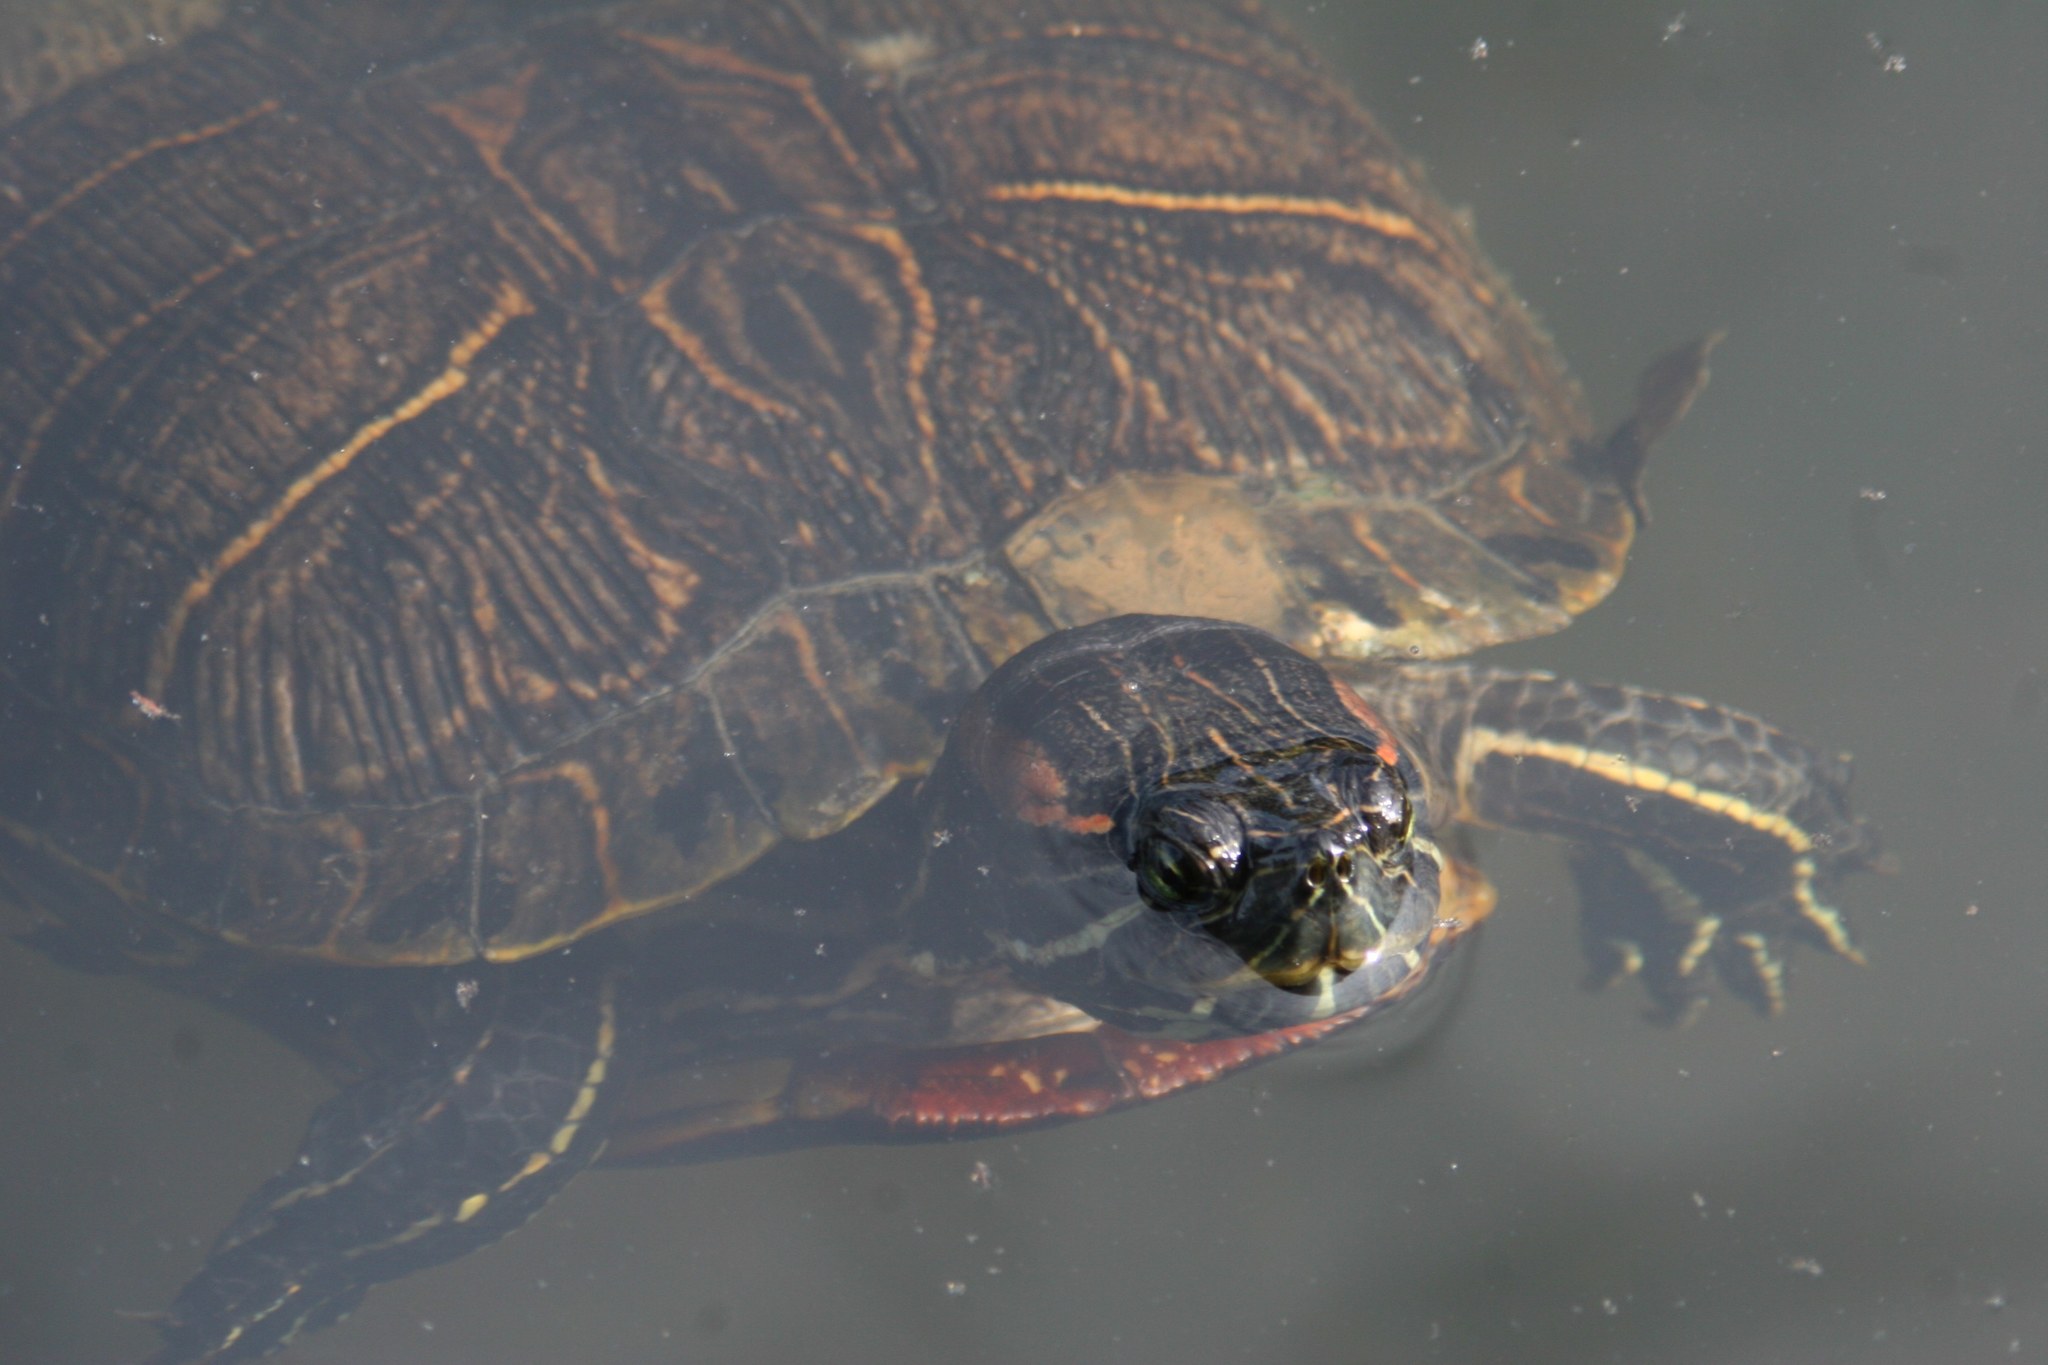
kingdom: Animalia
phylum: Chordata
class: Testudines
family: Emydidae
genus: Trachemys
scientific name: Trachemys scripta
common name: Slider
